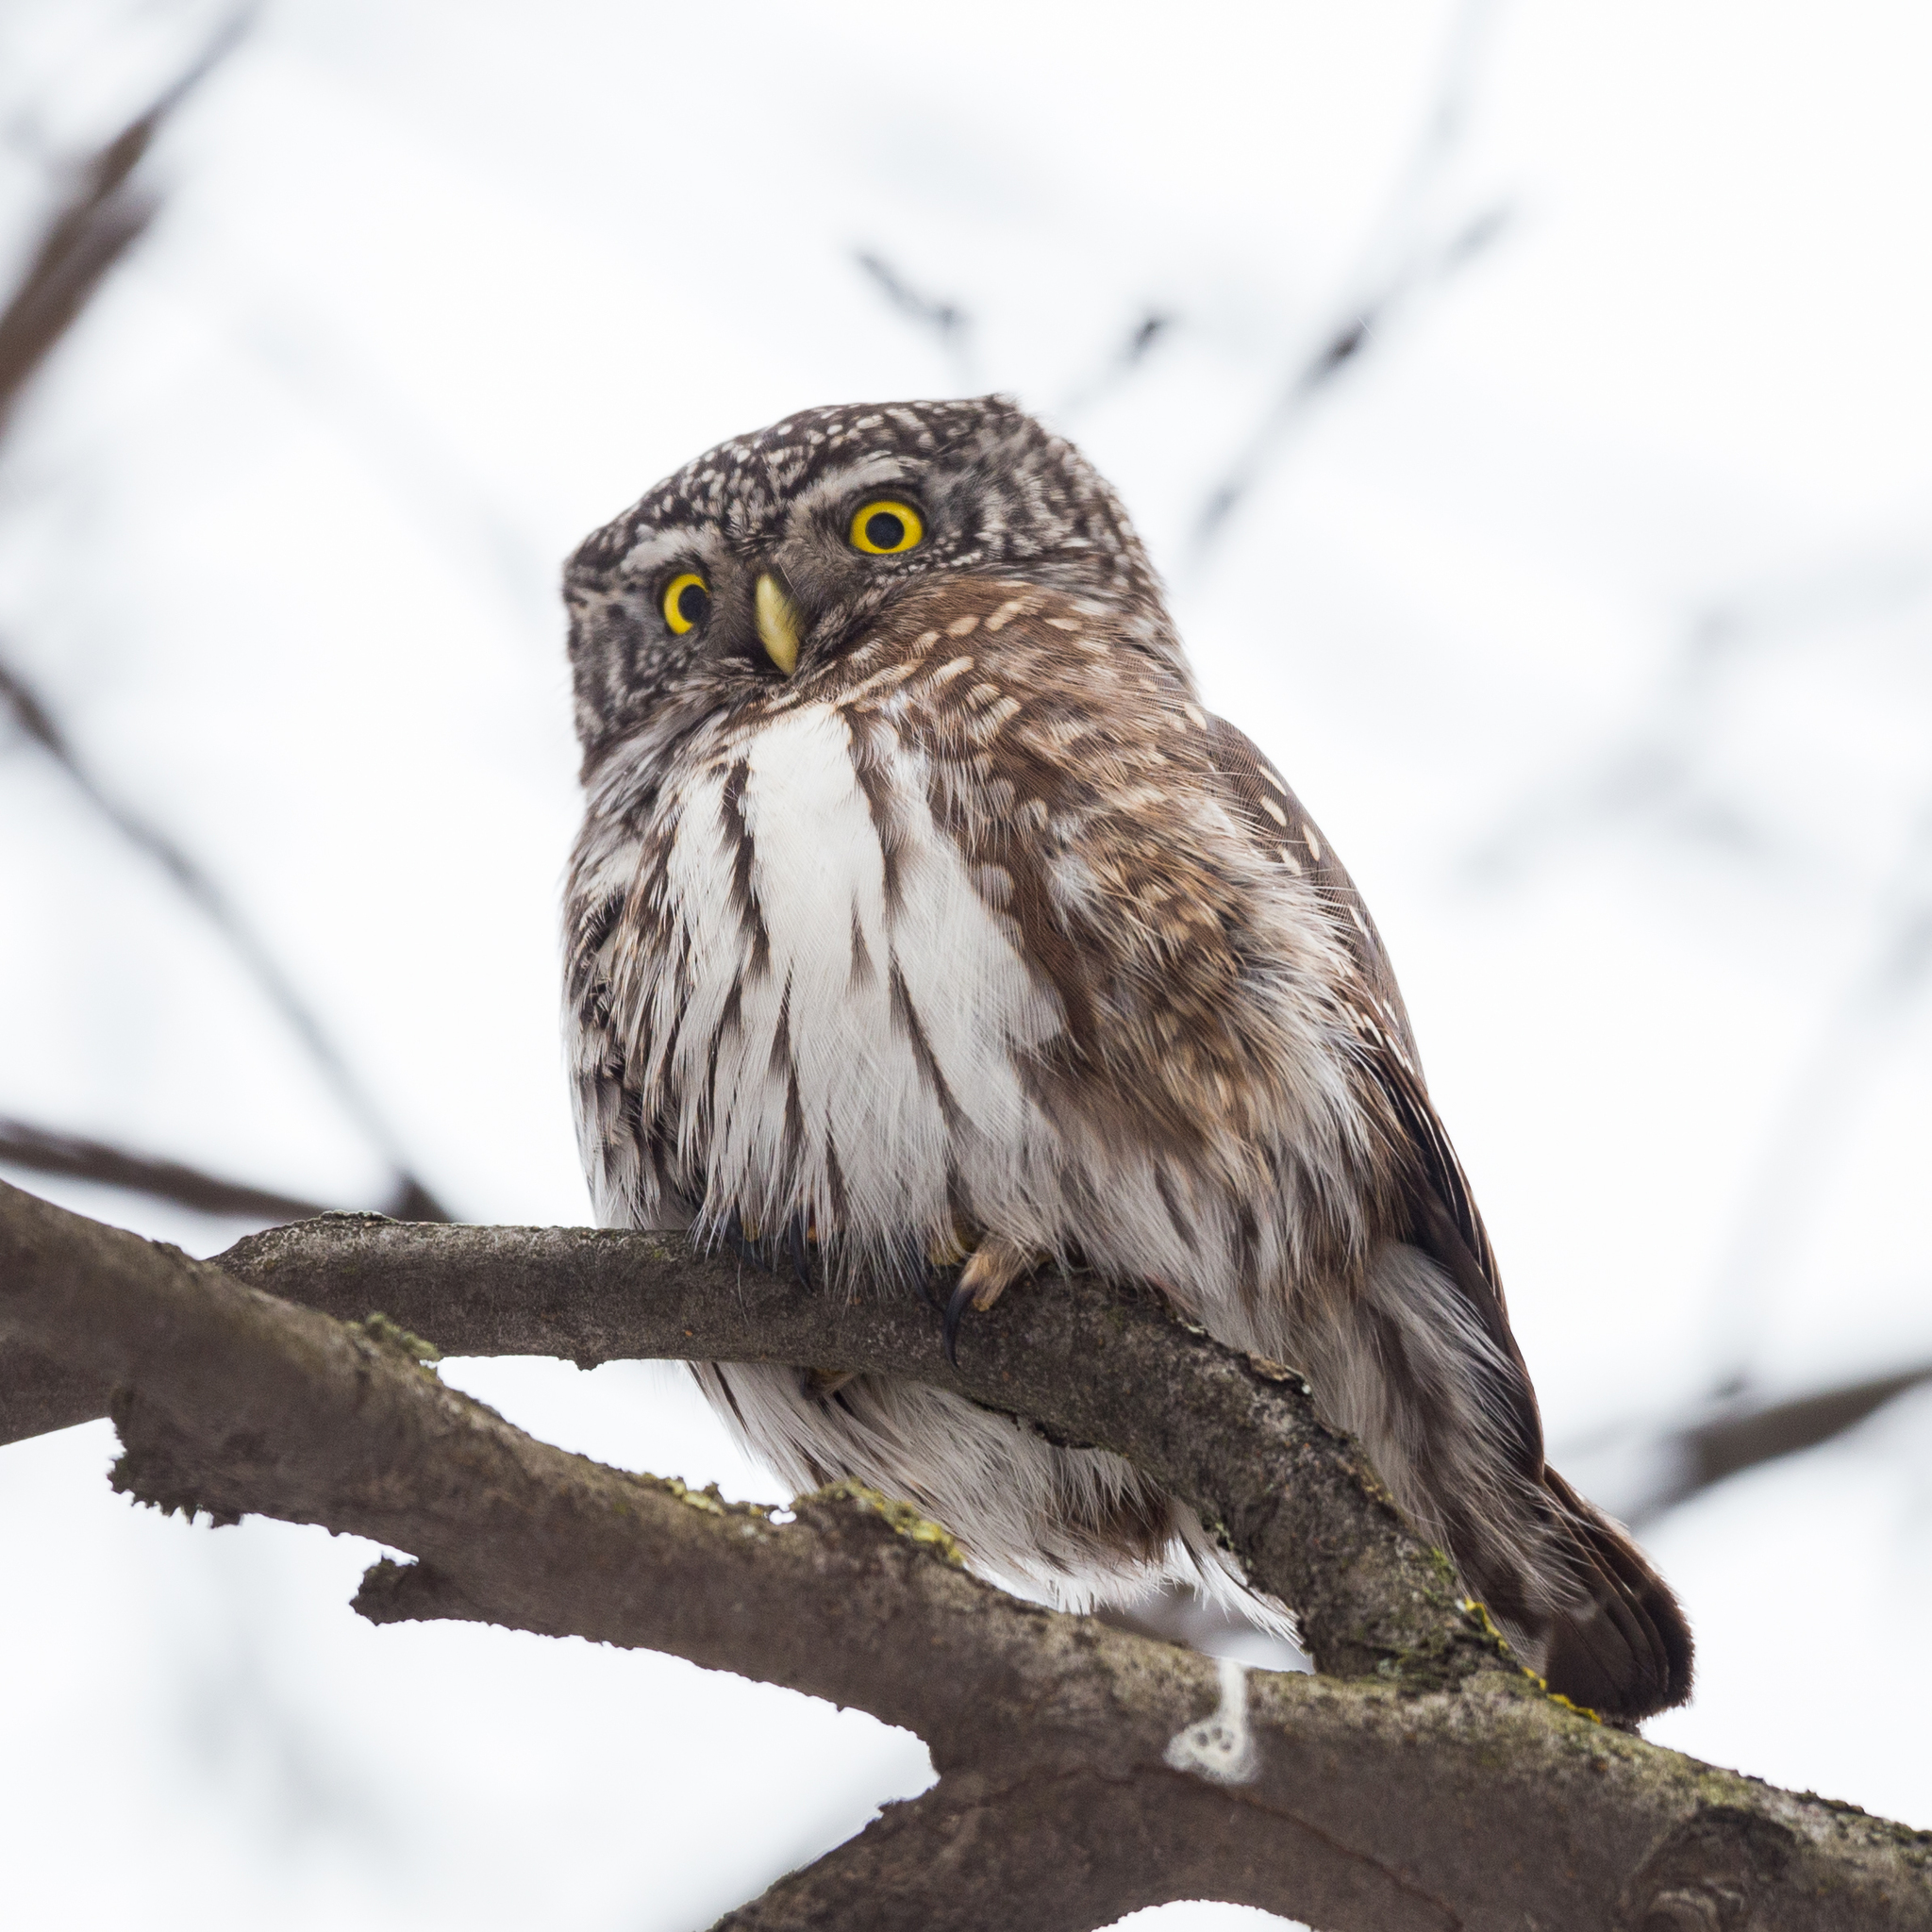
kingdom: Animalia
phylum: Chordata
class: Aves
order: Strigiformes
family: Strigidae
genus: Glaucidium
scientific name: Glaucidium passerinum
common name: Eurasian pygmy owl
